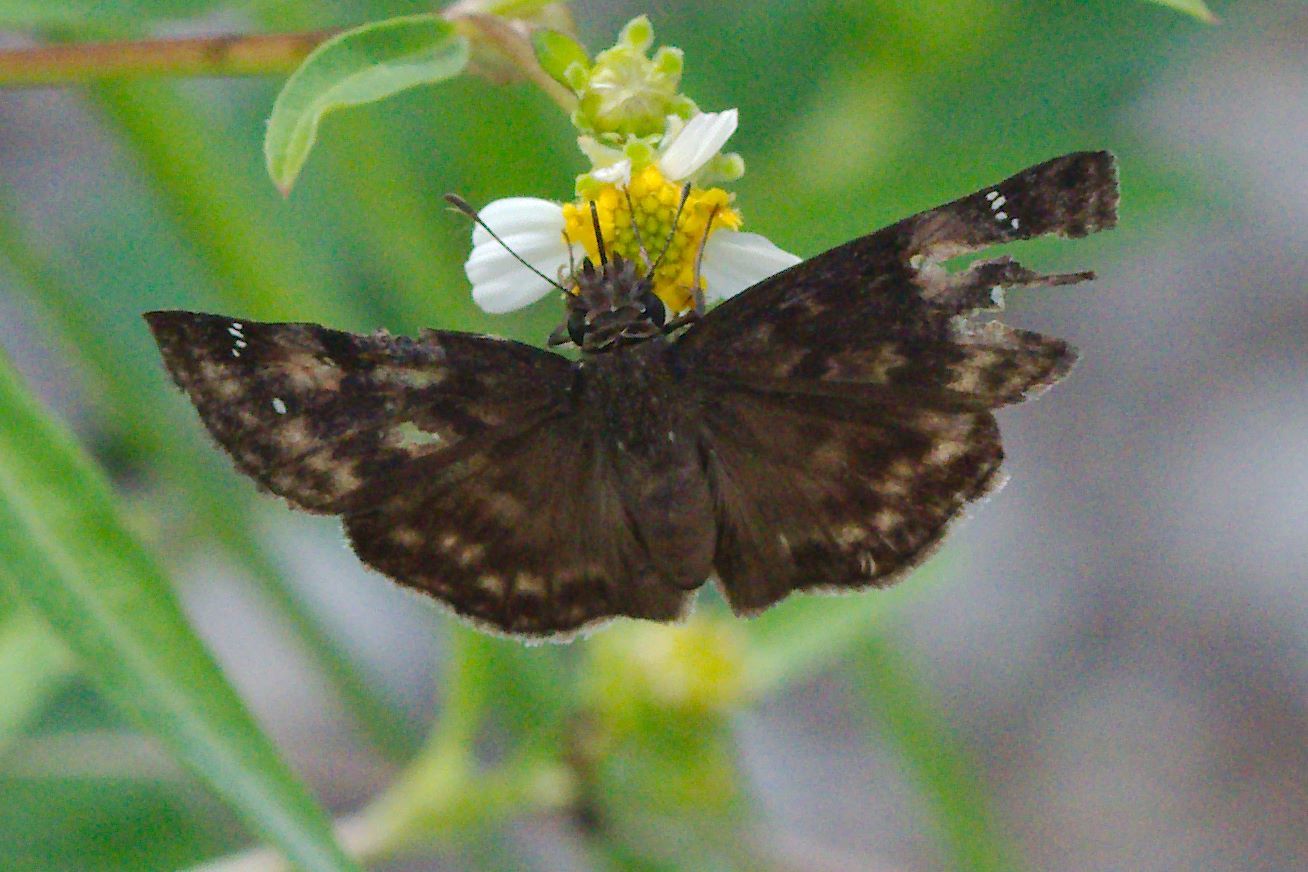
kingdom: Animalia
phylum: Arthropoda
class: Insecta
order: Lepidoptera
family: Hesperiidae
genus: Erynnis
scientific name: Erynnis zarucco
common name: Zarucco duskywing
